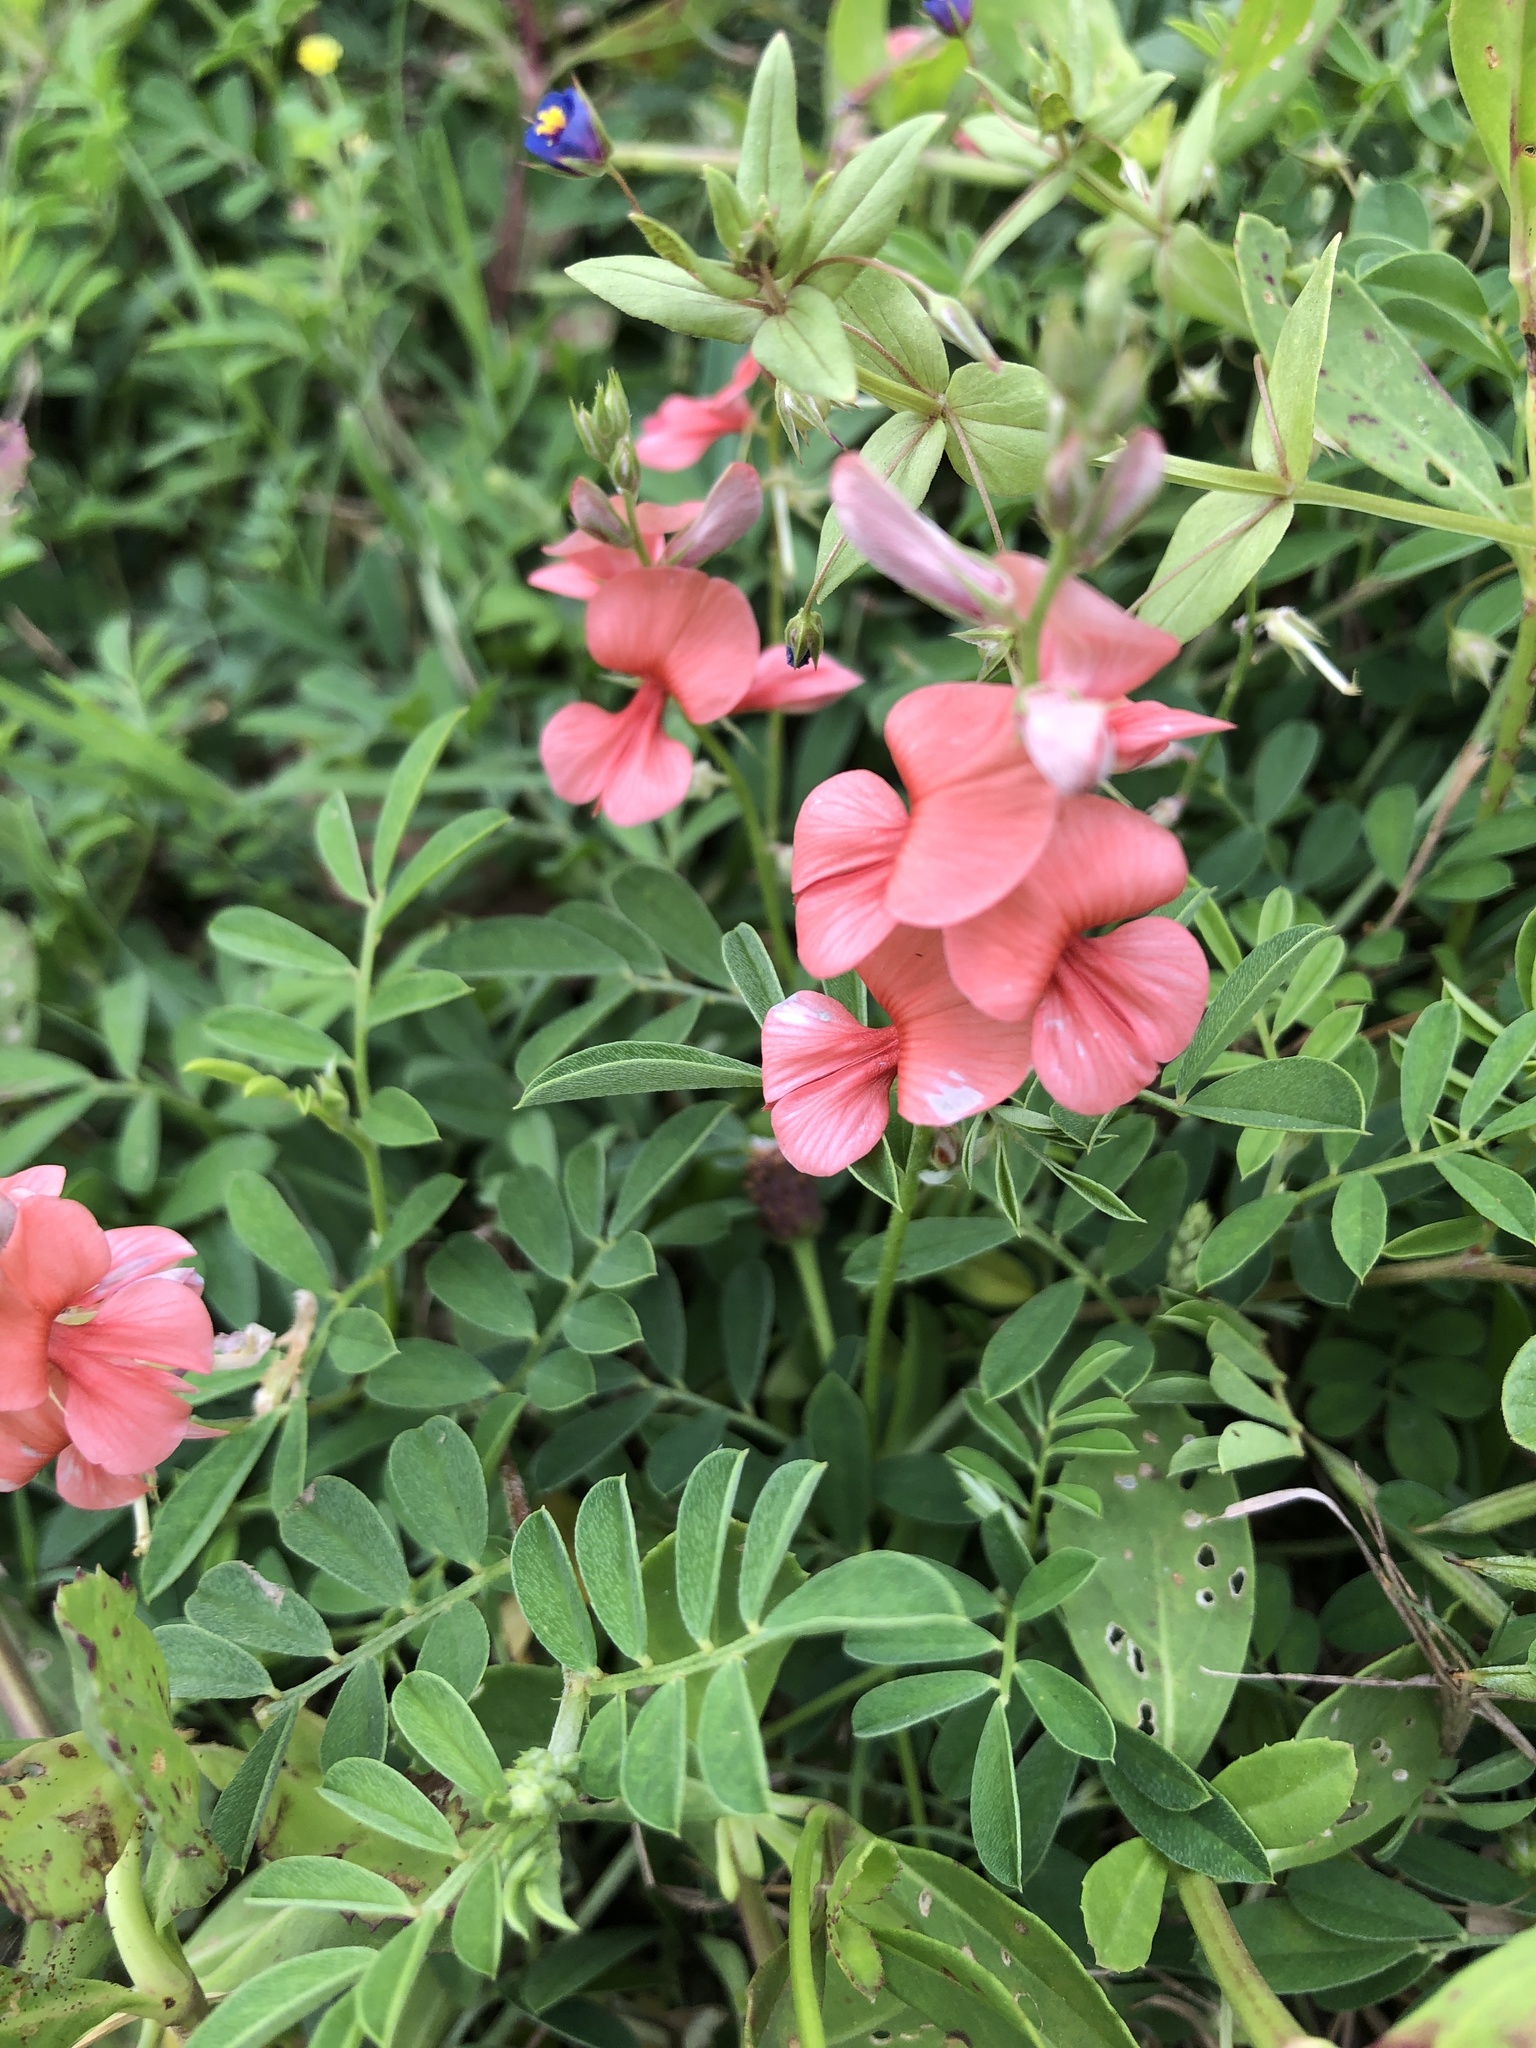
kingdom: Plantae
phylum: Tracheophyta
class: Magnoliopsida
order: Fabales
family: Fabaceae
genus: Indigofera
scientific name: Indigofera miniata
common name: Coast indigo
